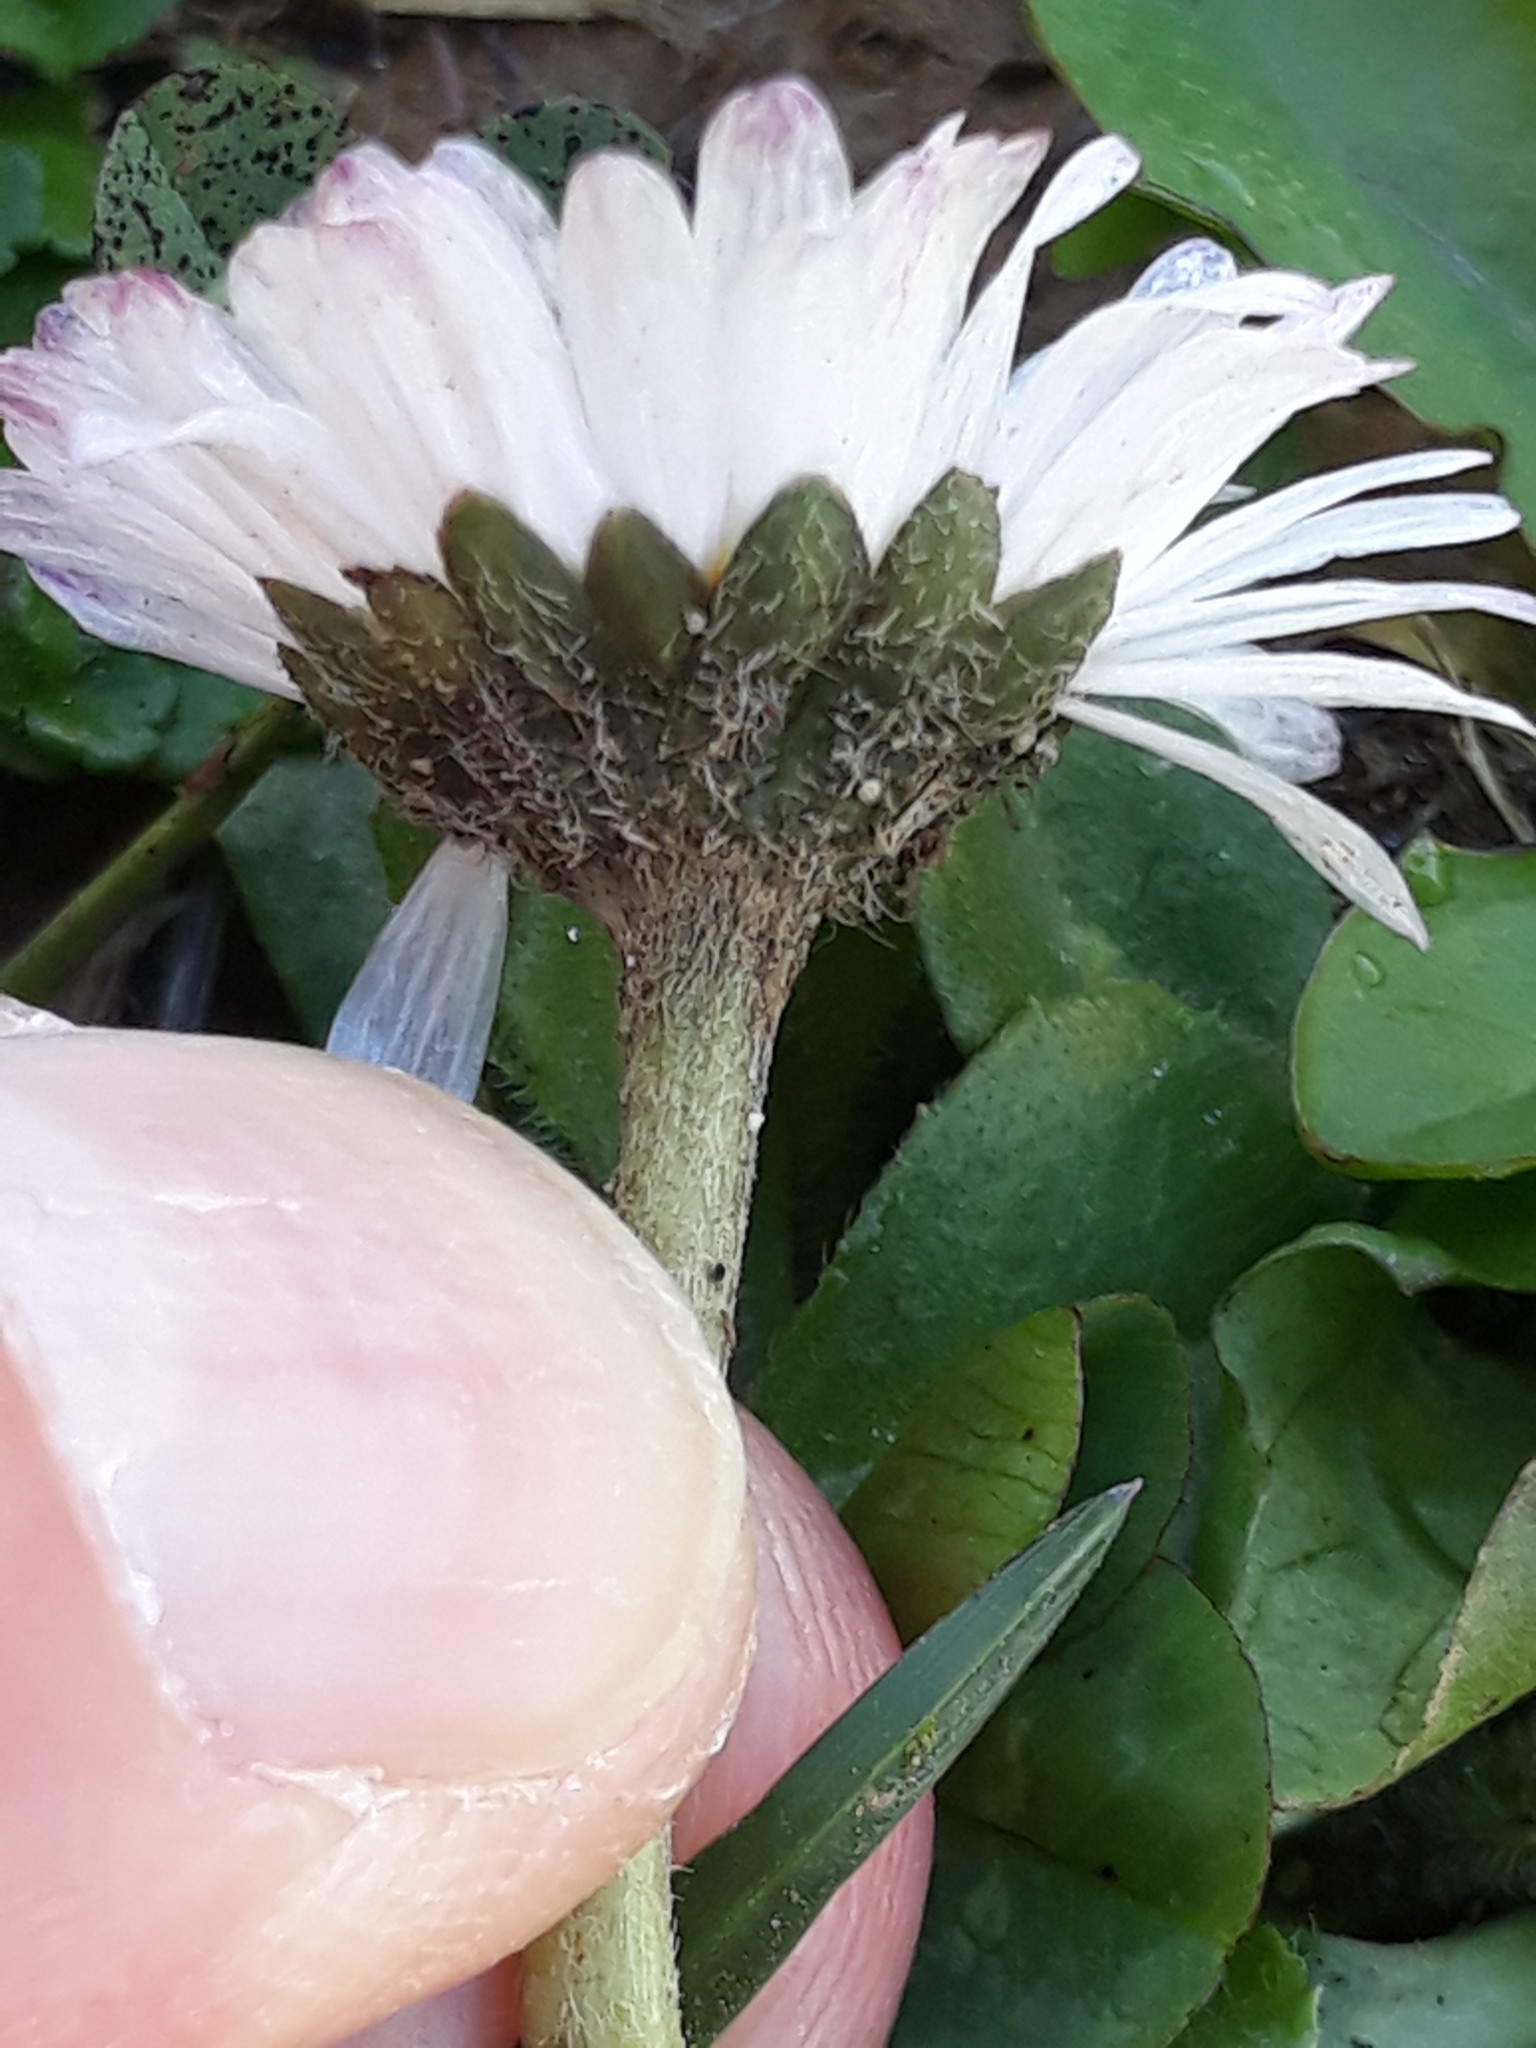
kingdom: Plantae
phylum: Tracheophyta
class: Magnoliopsida
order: Asterales
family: Asteraceae
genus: Bellis
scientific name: Bellis perennis
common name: Lawndaisy
